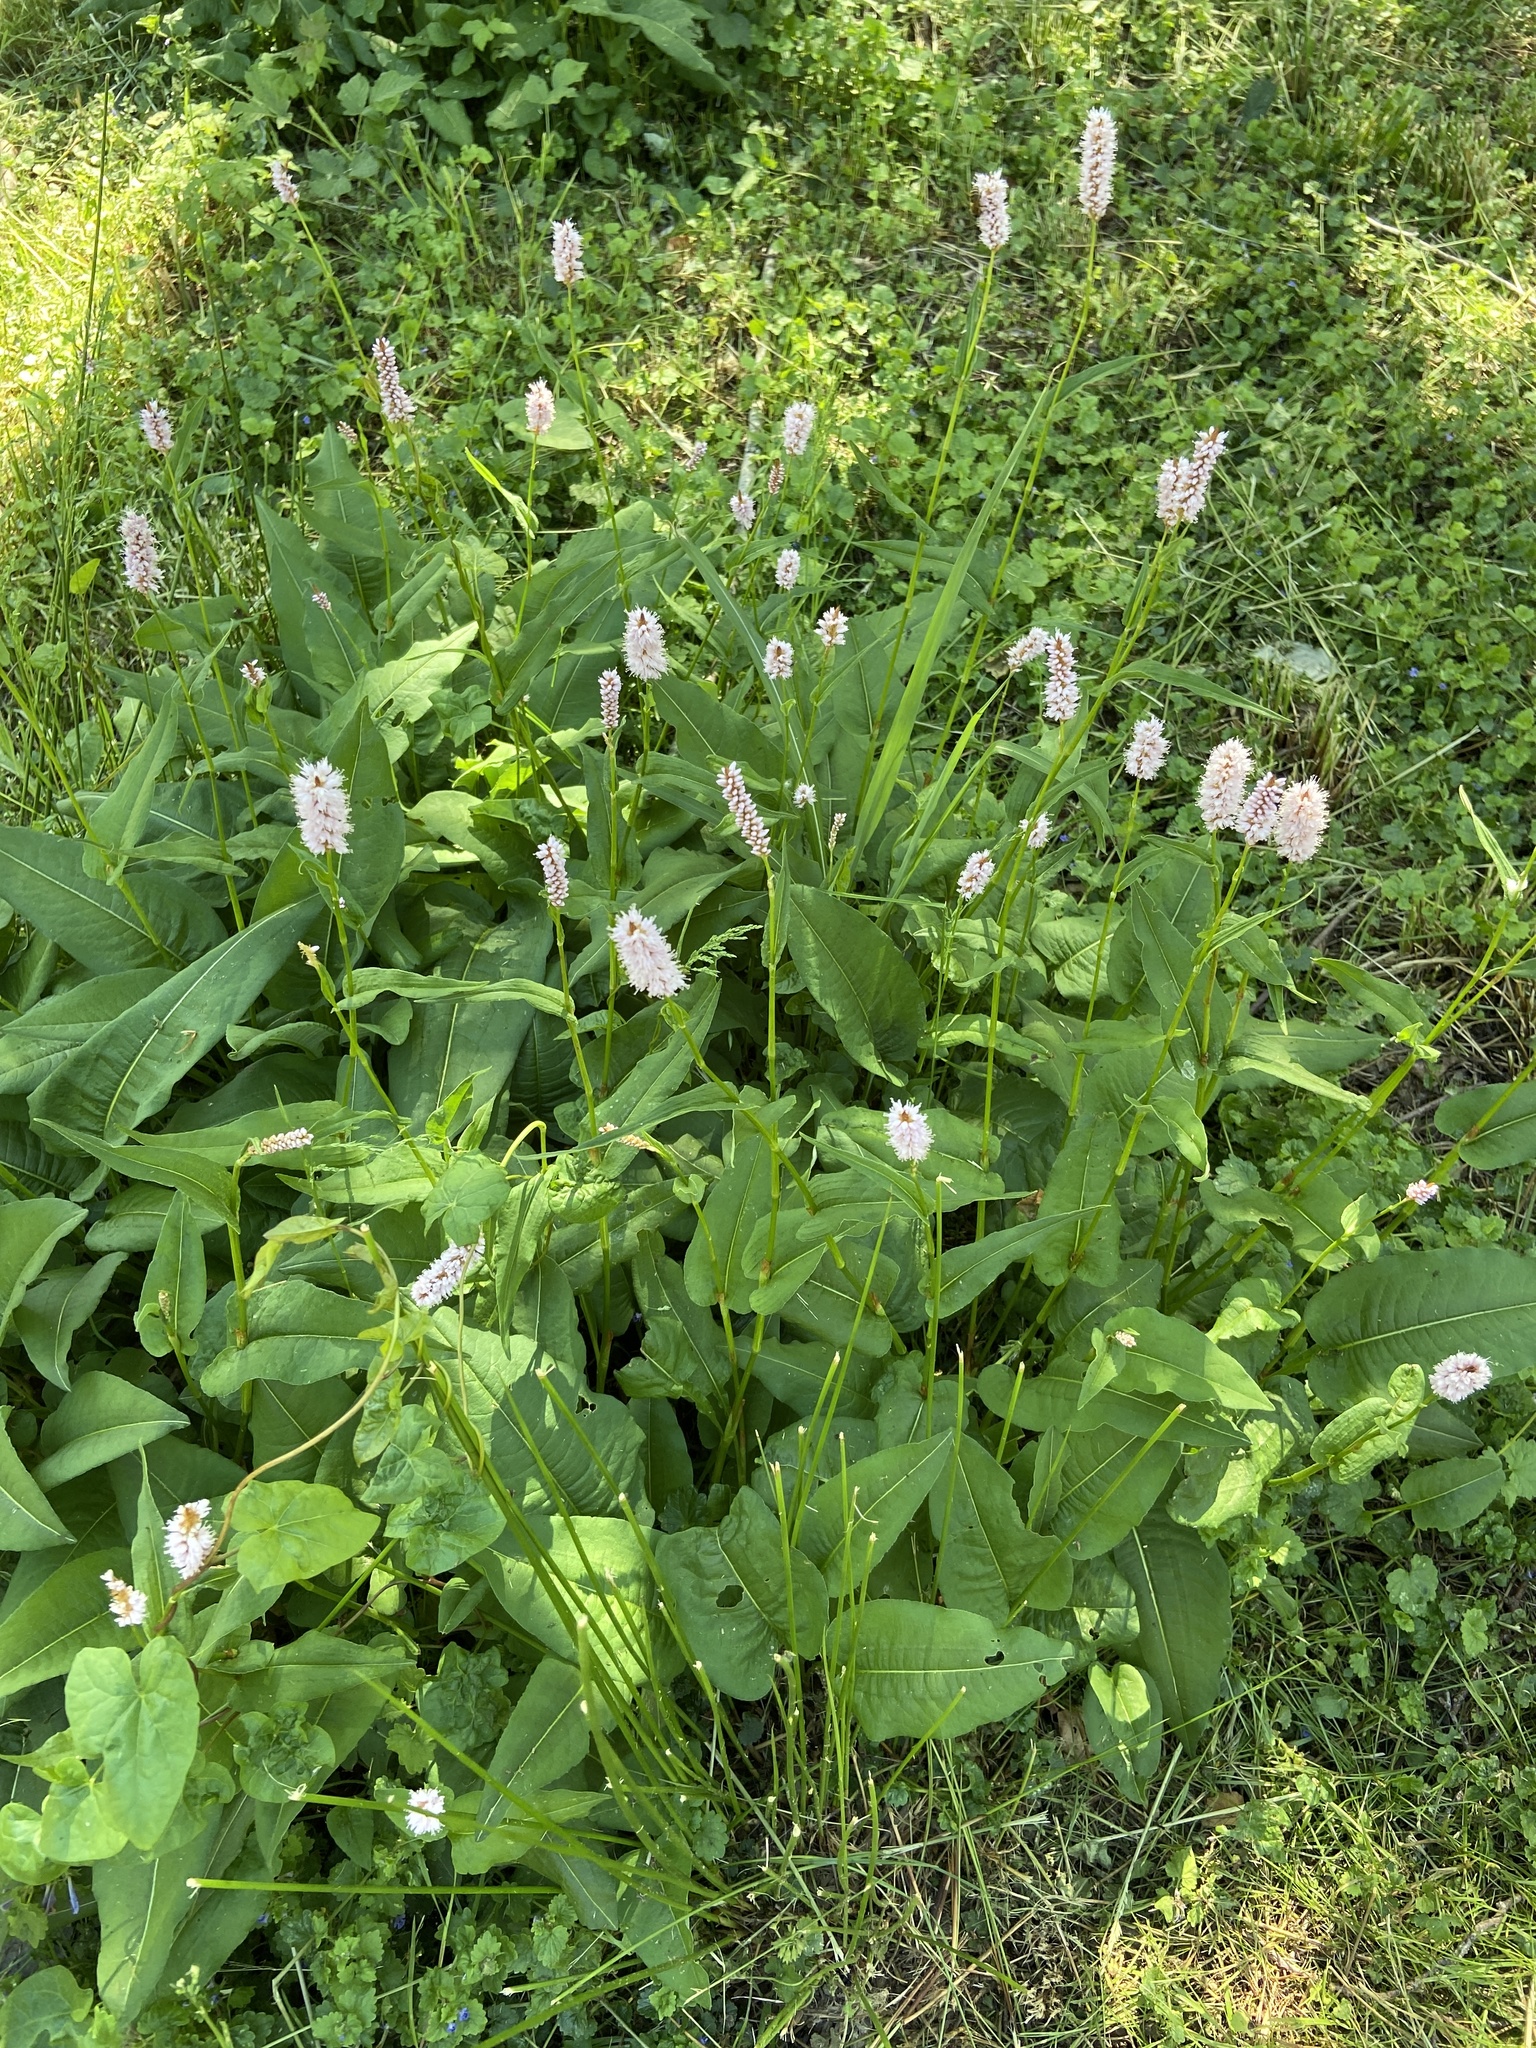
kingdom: Plantae
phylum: Tracheophyta
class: Magnoliopsida
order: Caryophyllales
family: Polygonaceae
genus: Bistorta
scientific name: Bistorta officinalis
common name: Common bistort
